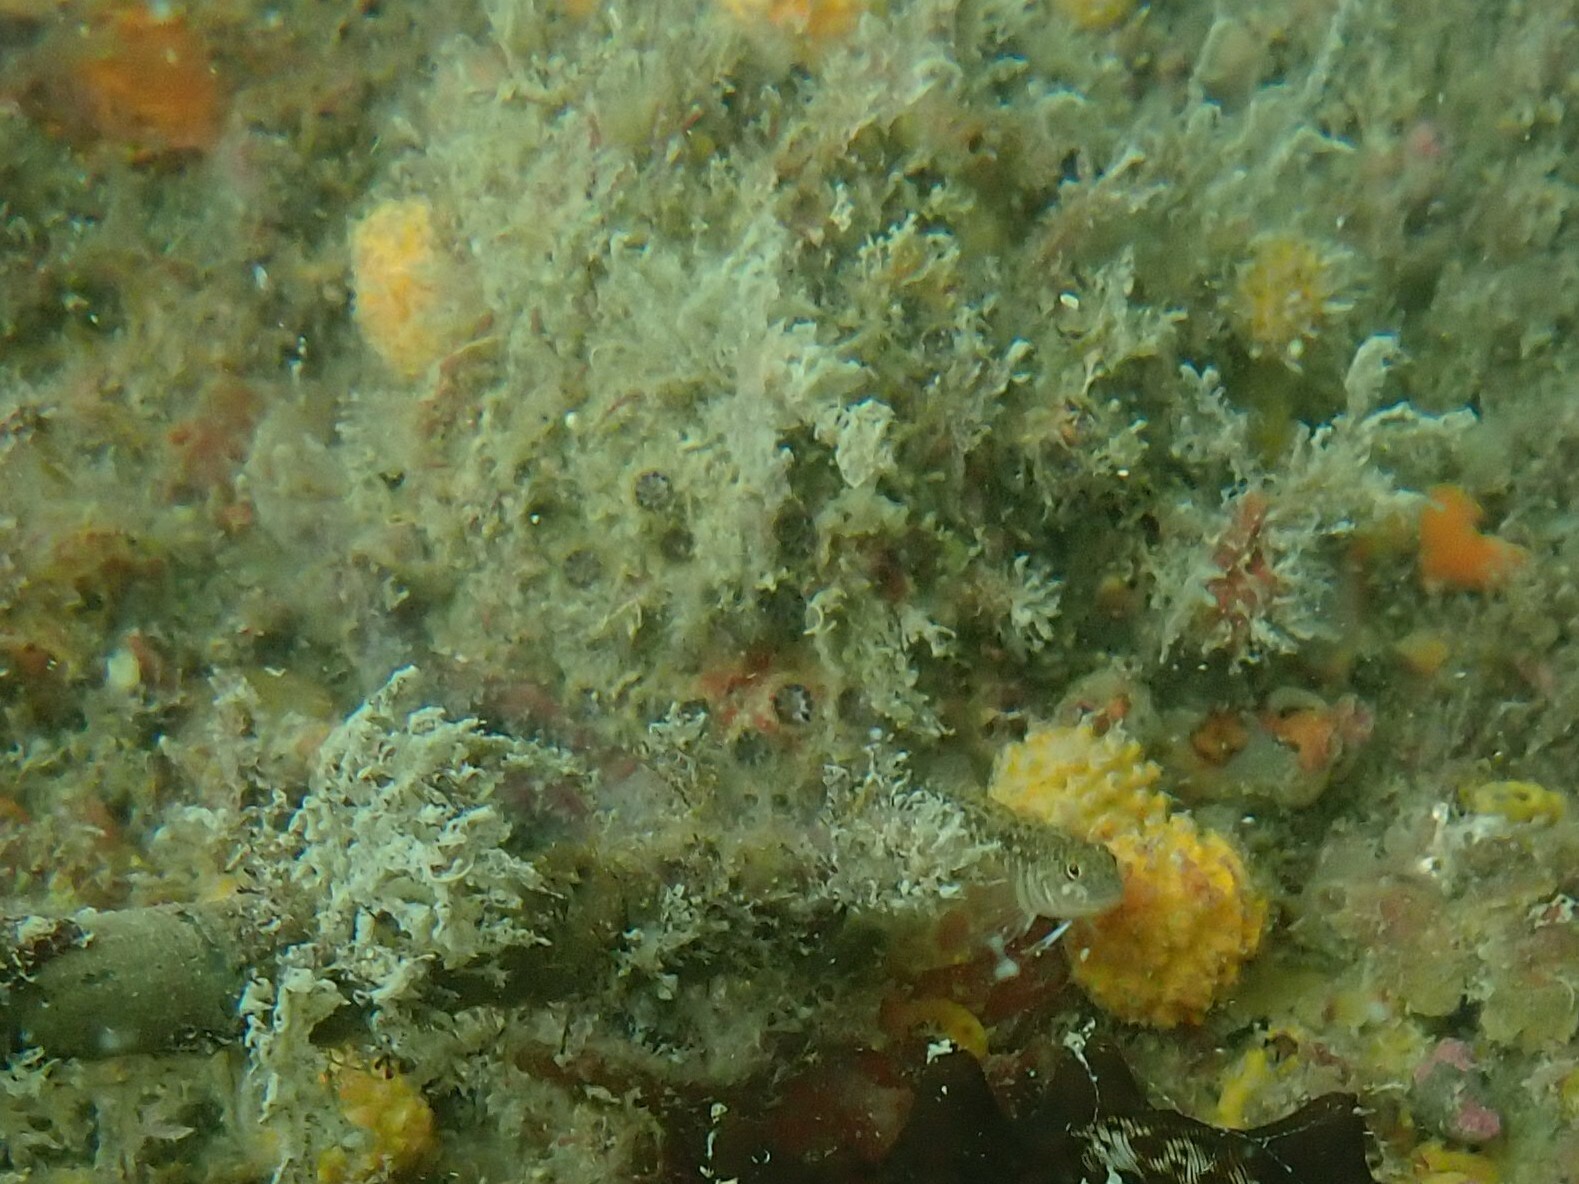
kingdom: Animalia
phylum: Cnidaria
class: Anthozoa
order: Scleractinia
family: Rhizangiidae
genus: Culicia
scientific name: Culicia rubeola
